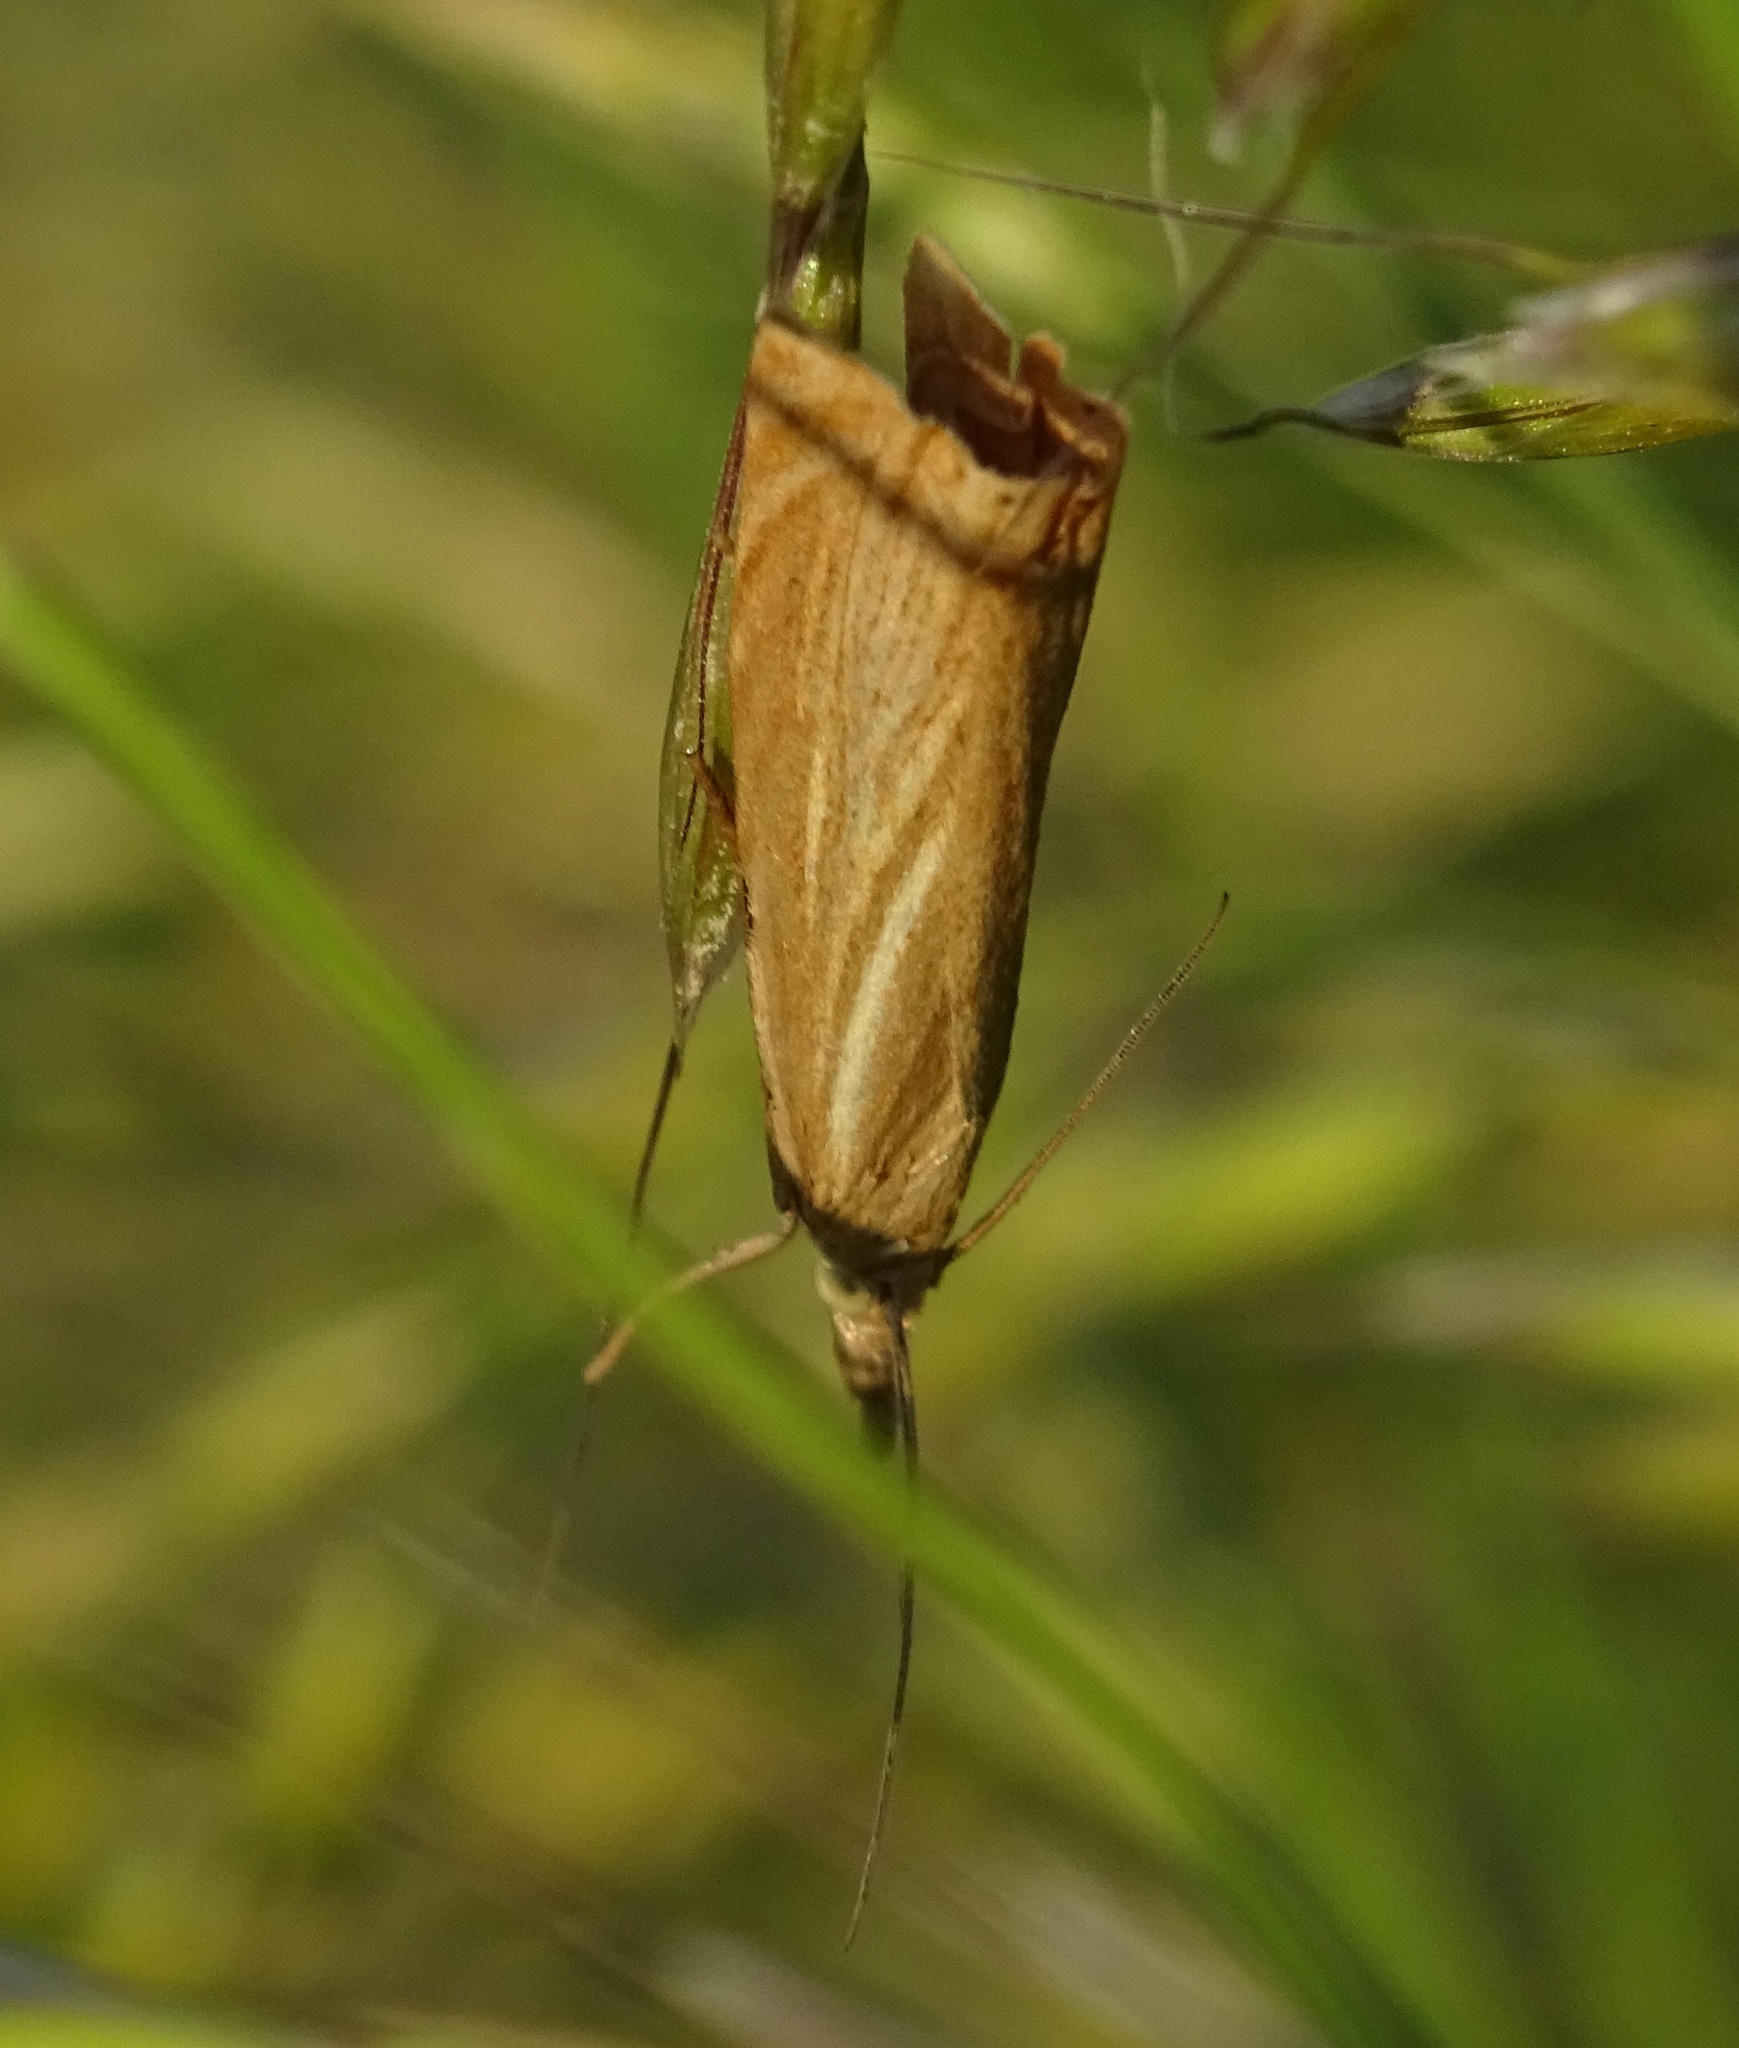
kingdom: Animalia
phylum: Arthropoda
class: Insecta
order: Lepidoptera
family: Crambidae
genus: Chrysoteuchia
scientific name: Chrysoteuchia culmella
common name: Garden grass-veneer
